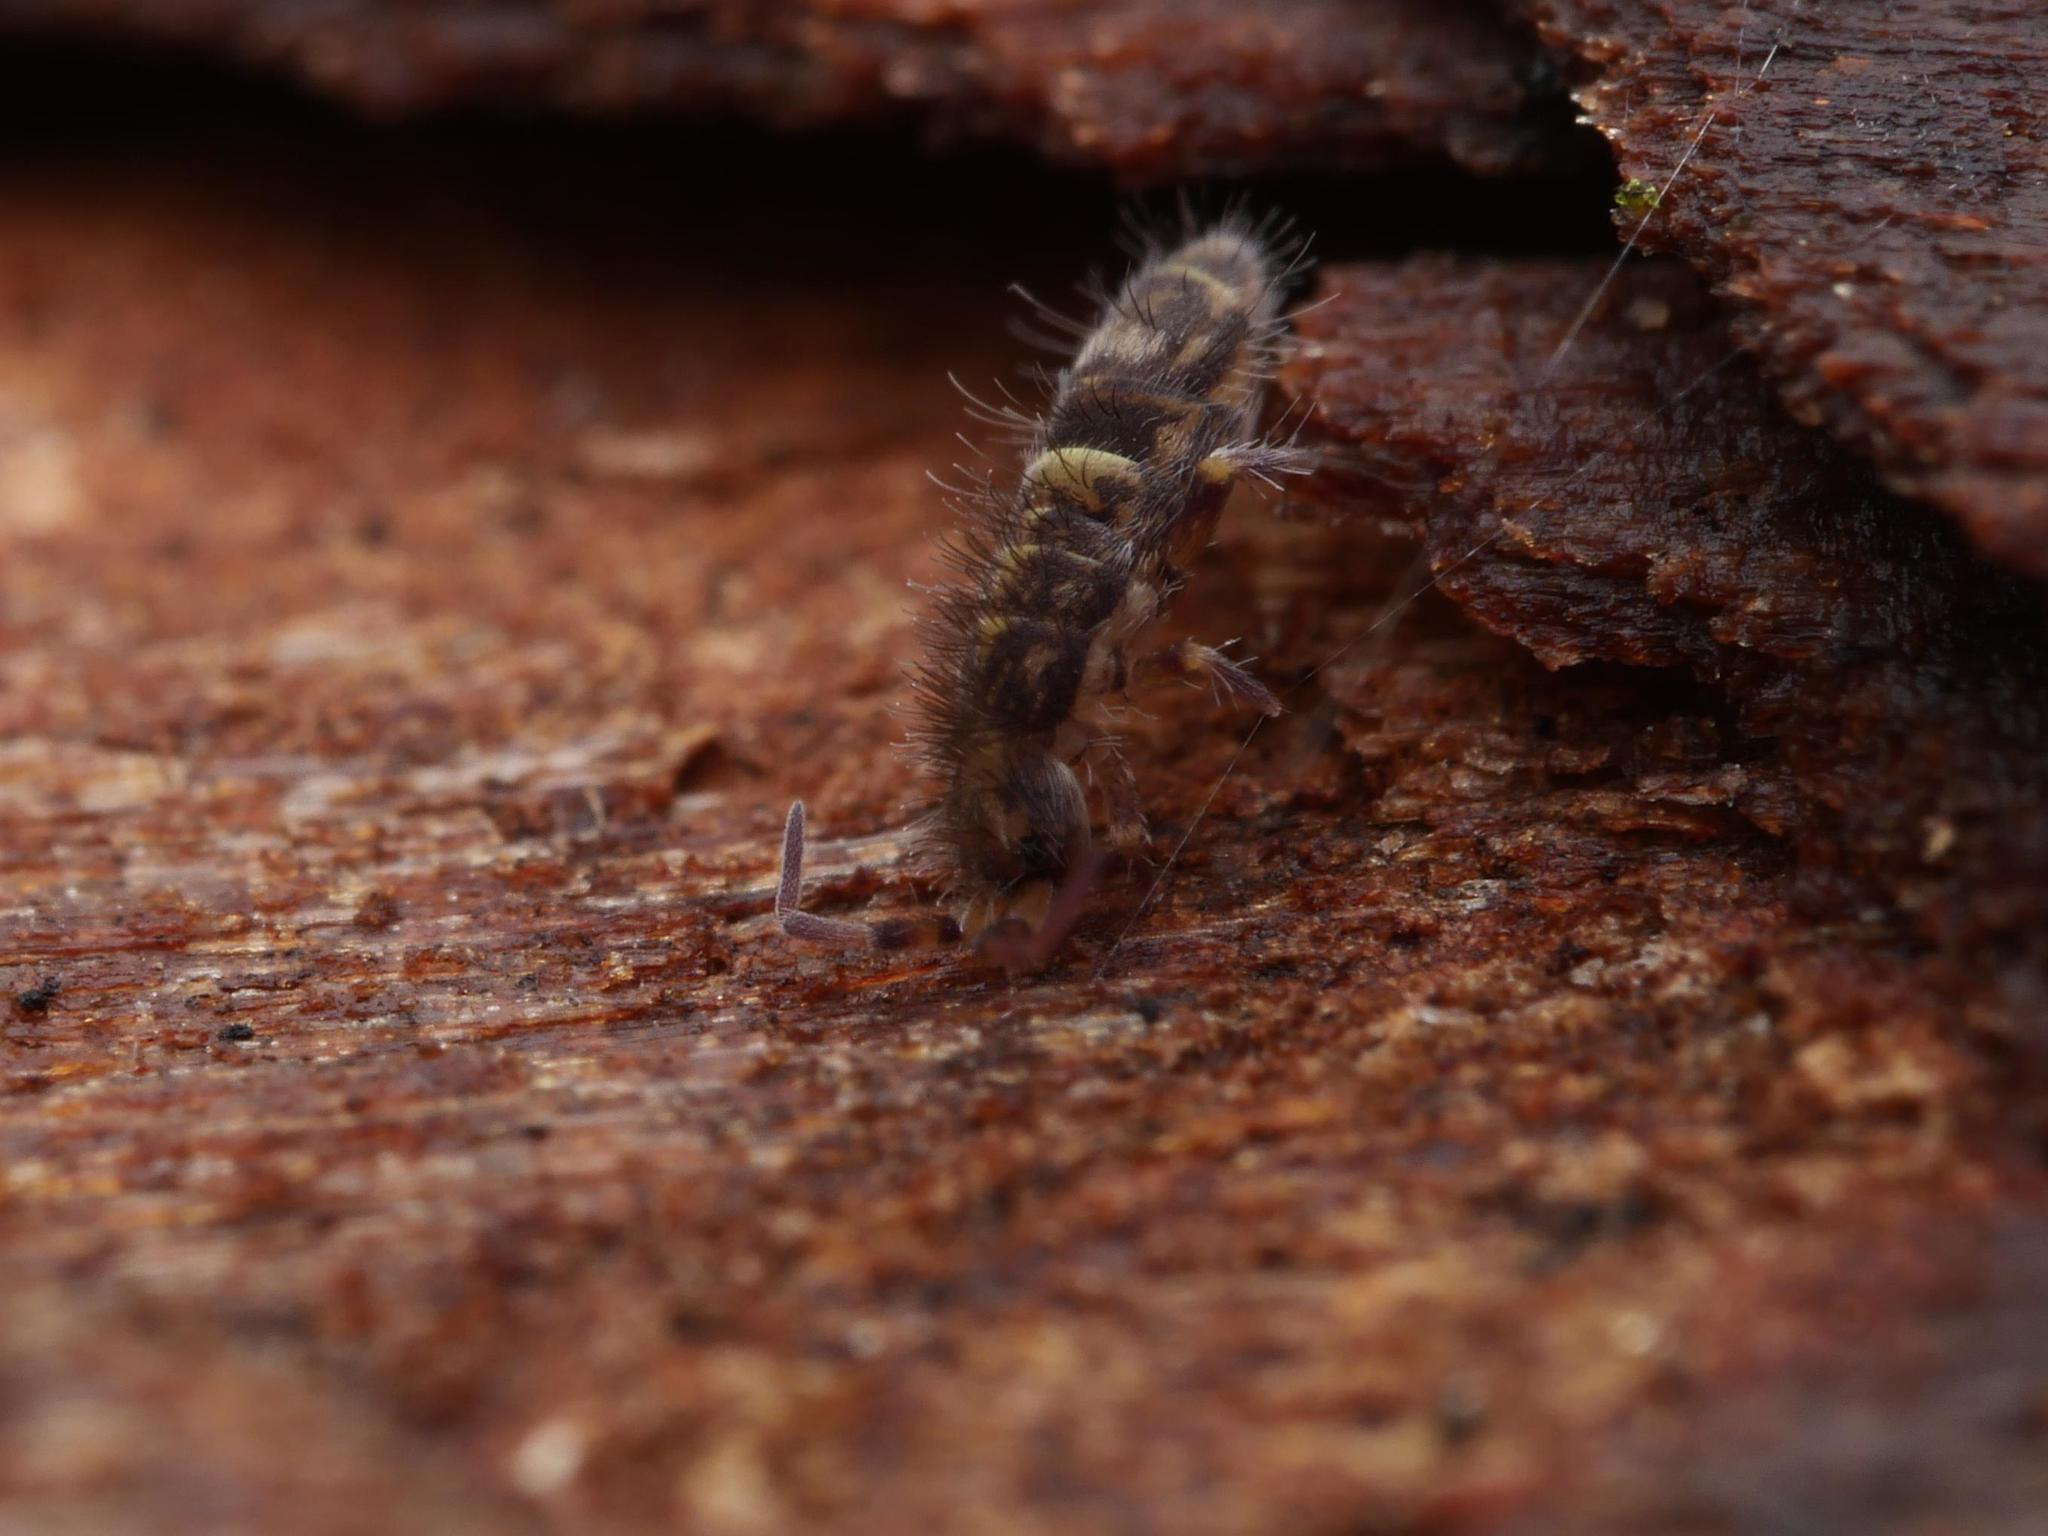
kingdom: Animalia
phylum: Arthropoda
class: Collembola
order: Entomobryomorpha
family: Orchesellidae
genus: Orchesella
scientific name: Orchesella cincta
